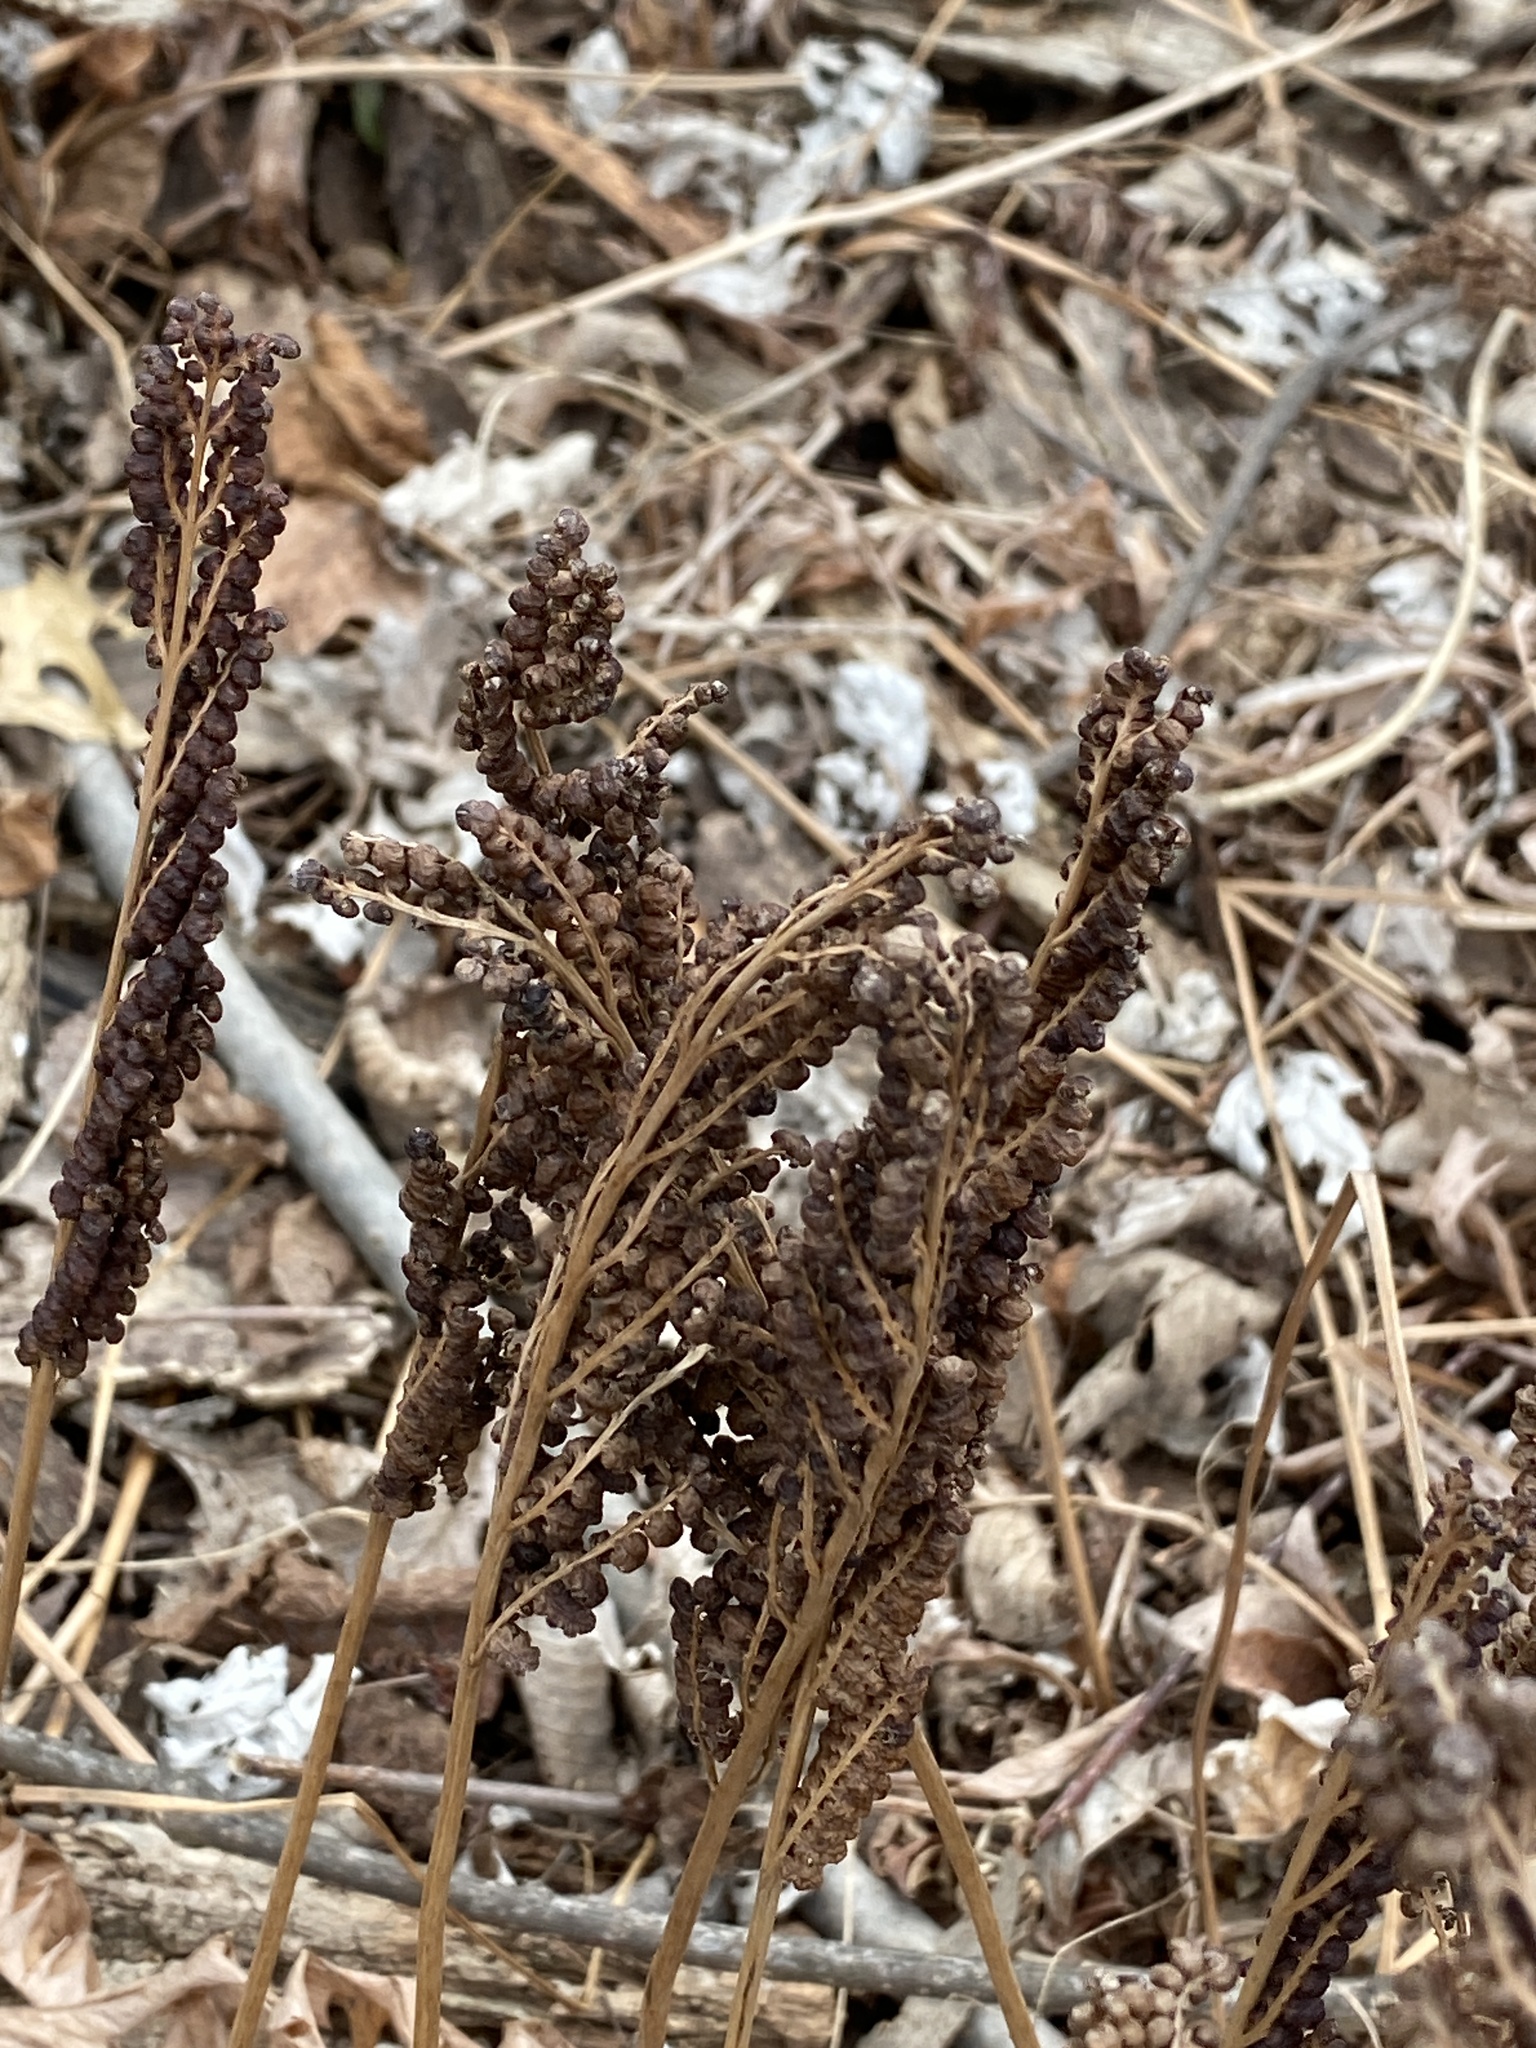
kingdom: Plantae
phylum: Tracheophyta
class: Polypodiopsida
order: Polypodiales
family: Onocleaceae
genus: Onoclea
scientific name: Onoclea sensibilis
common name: Sensitive fern
